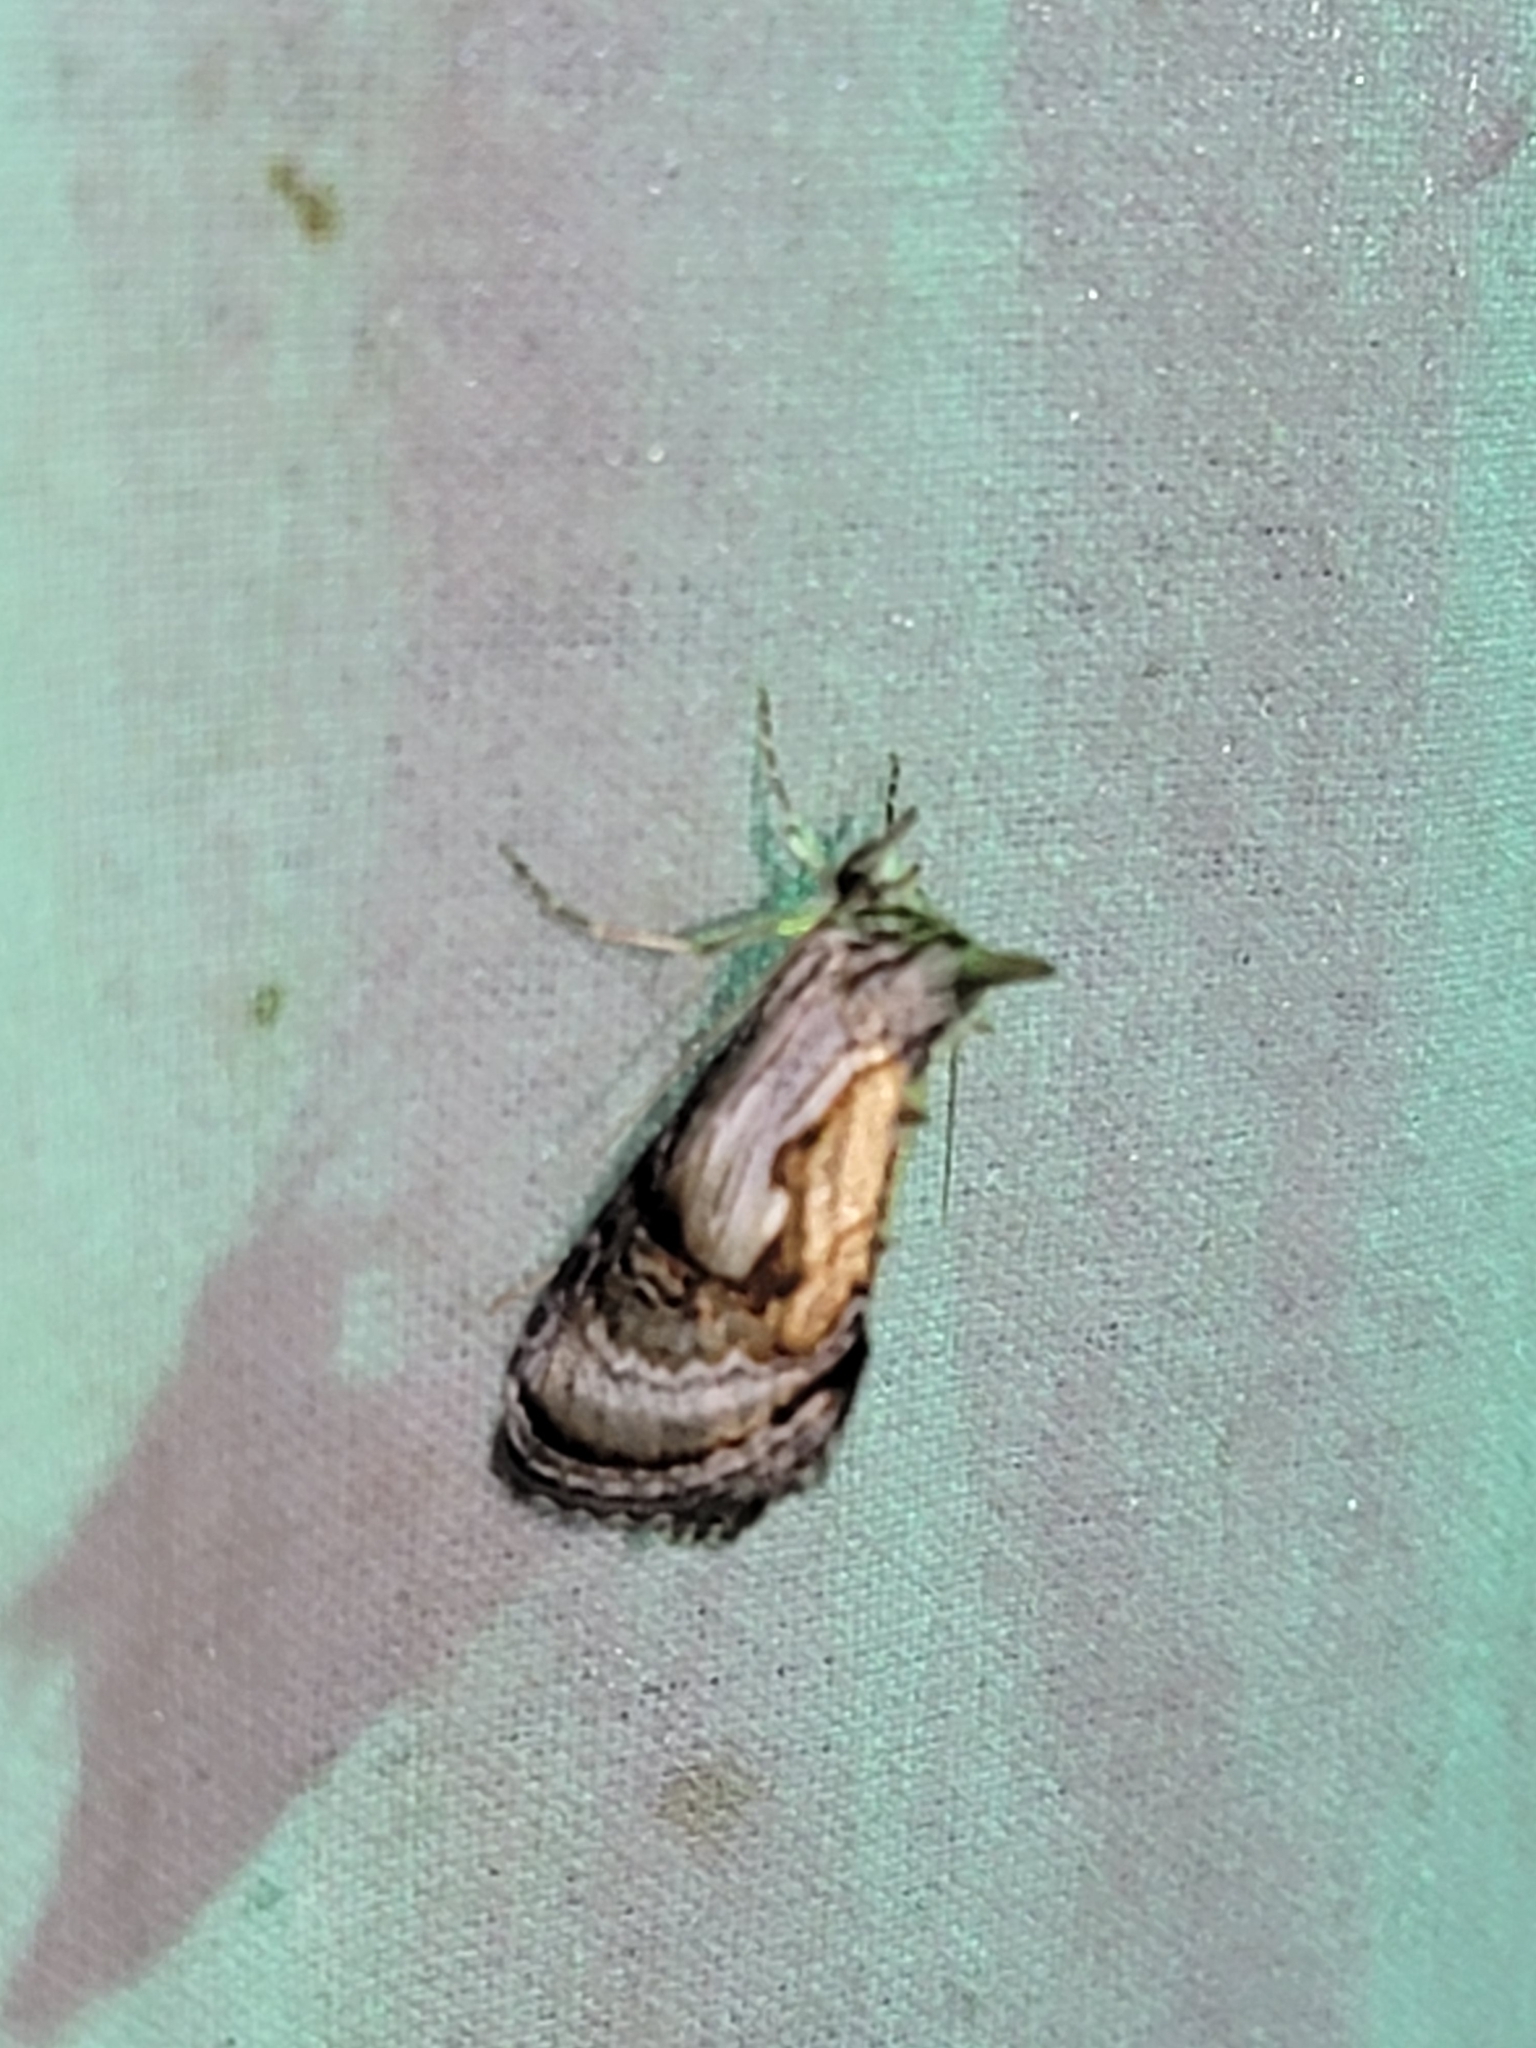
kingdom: Animalia
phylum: Arthropoda
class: Insecta
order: Lepidoptera
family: Noctuidae
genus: Chrysanympha
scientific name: Chrysanympha formosa
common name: Formosa looper moth
